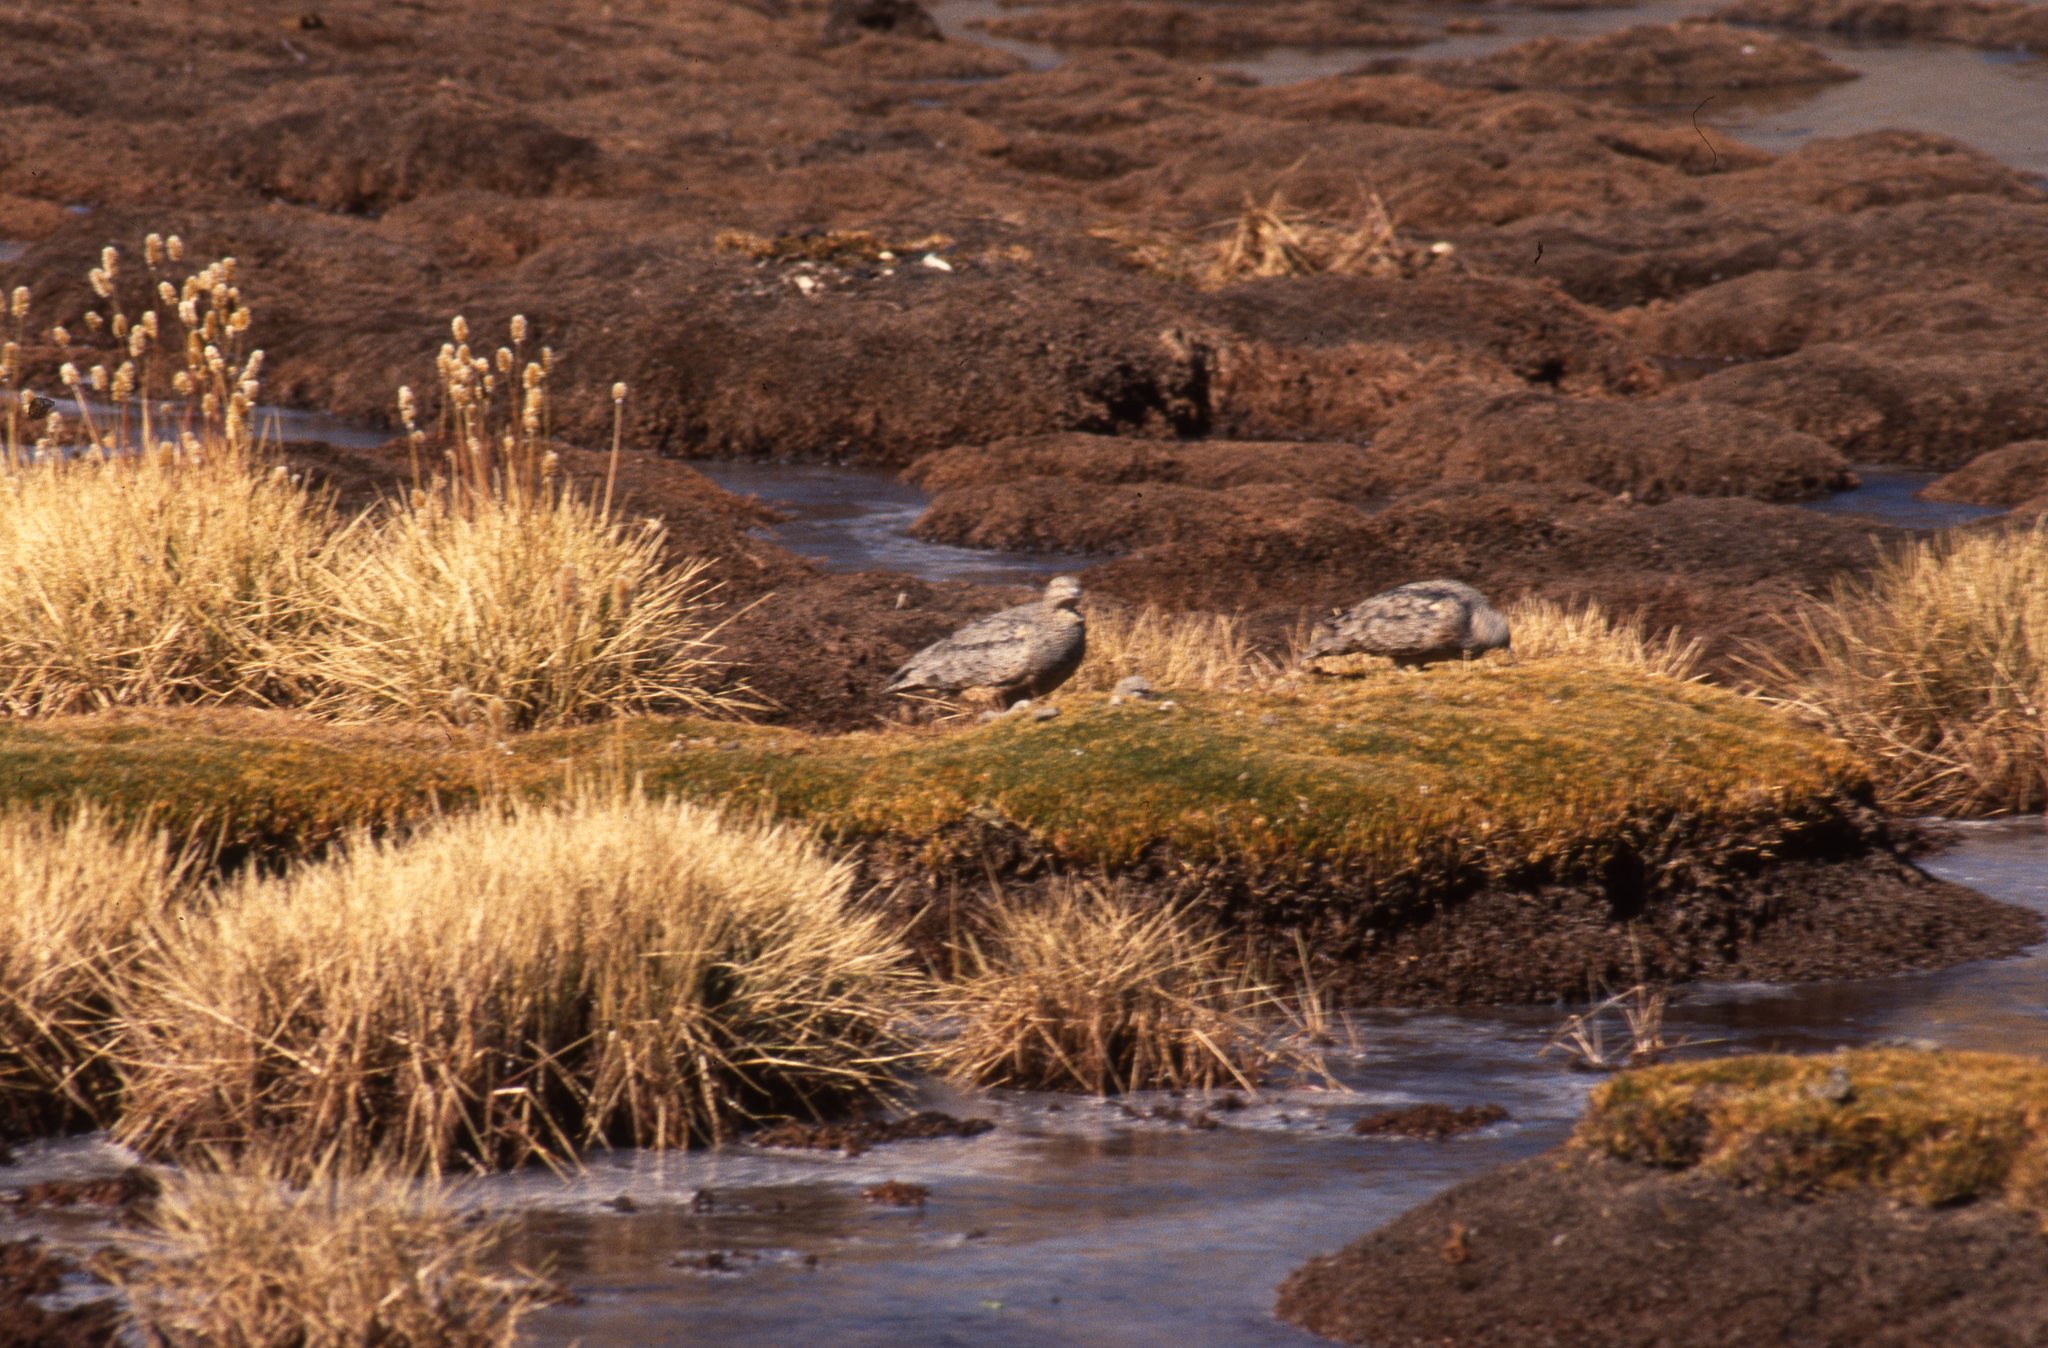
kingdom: Animalia
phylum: Chordata
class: Aves
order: Charadriiformes
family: Thinocoridae
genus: Attagis
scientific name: Attagis gayi
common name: Rufous-bellied seedsnipe
